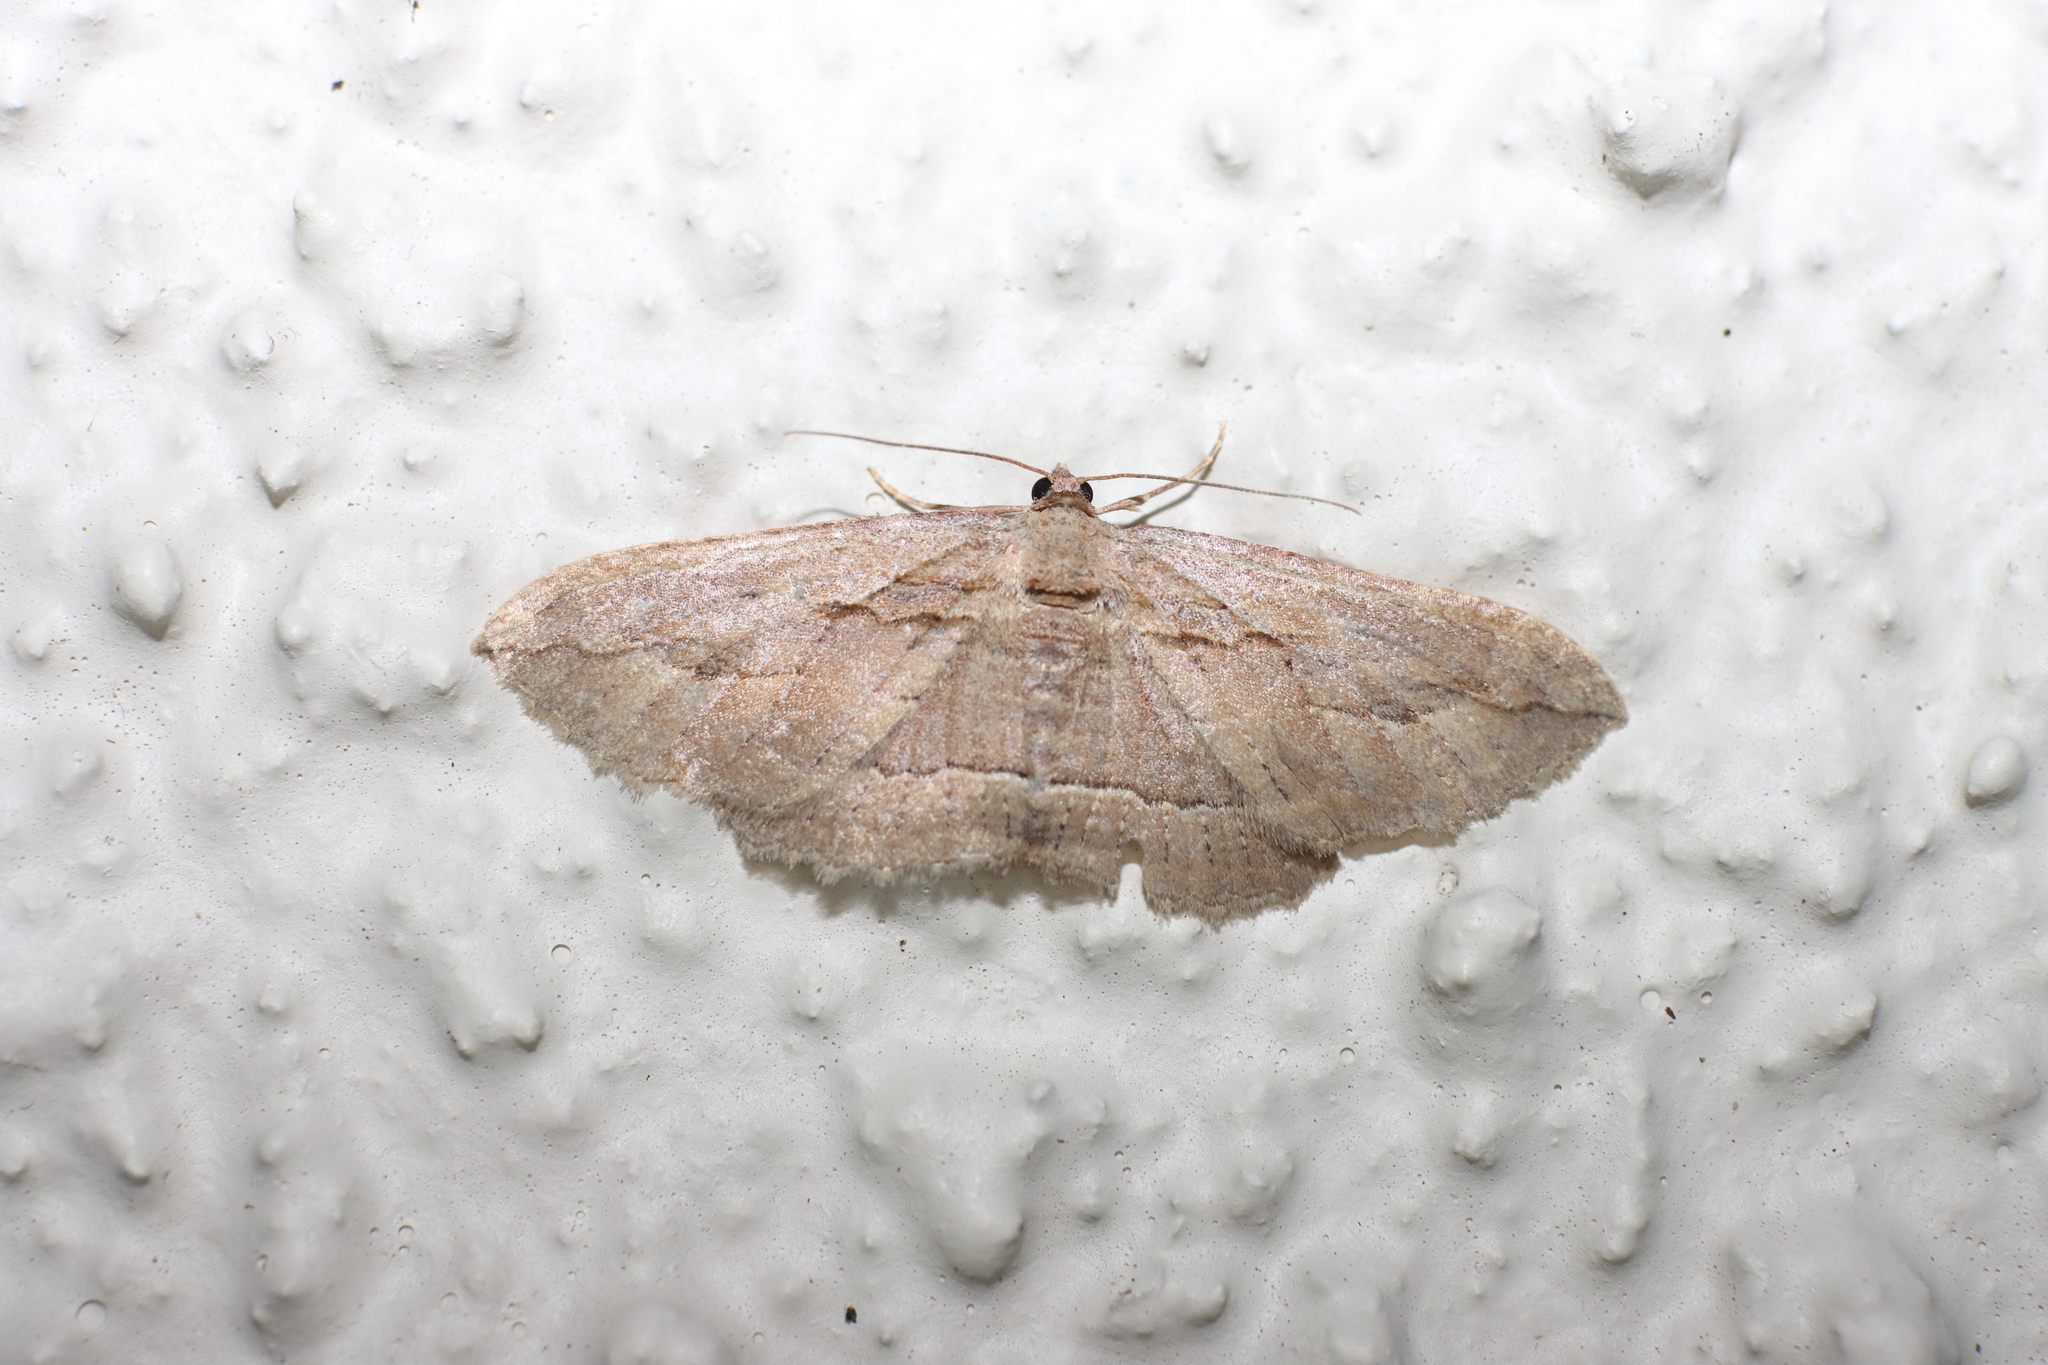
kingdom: Animalia
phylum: Arthropoda
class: Insecta
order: Lepidoptera
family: Geometridae
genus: Austrocidaria
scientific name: Austrocidaria gobiata
